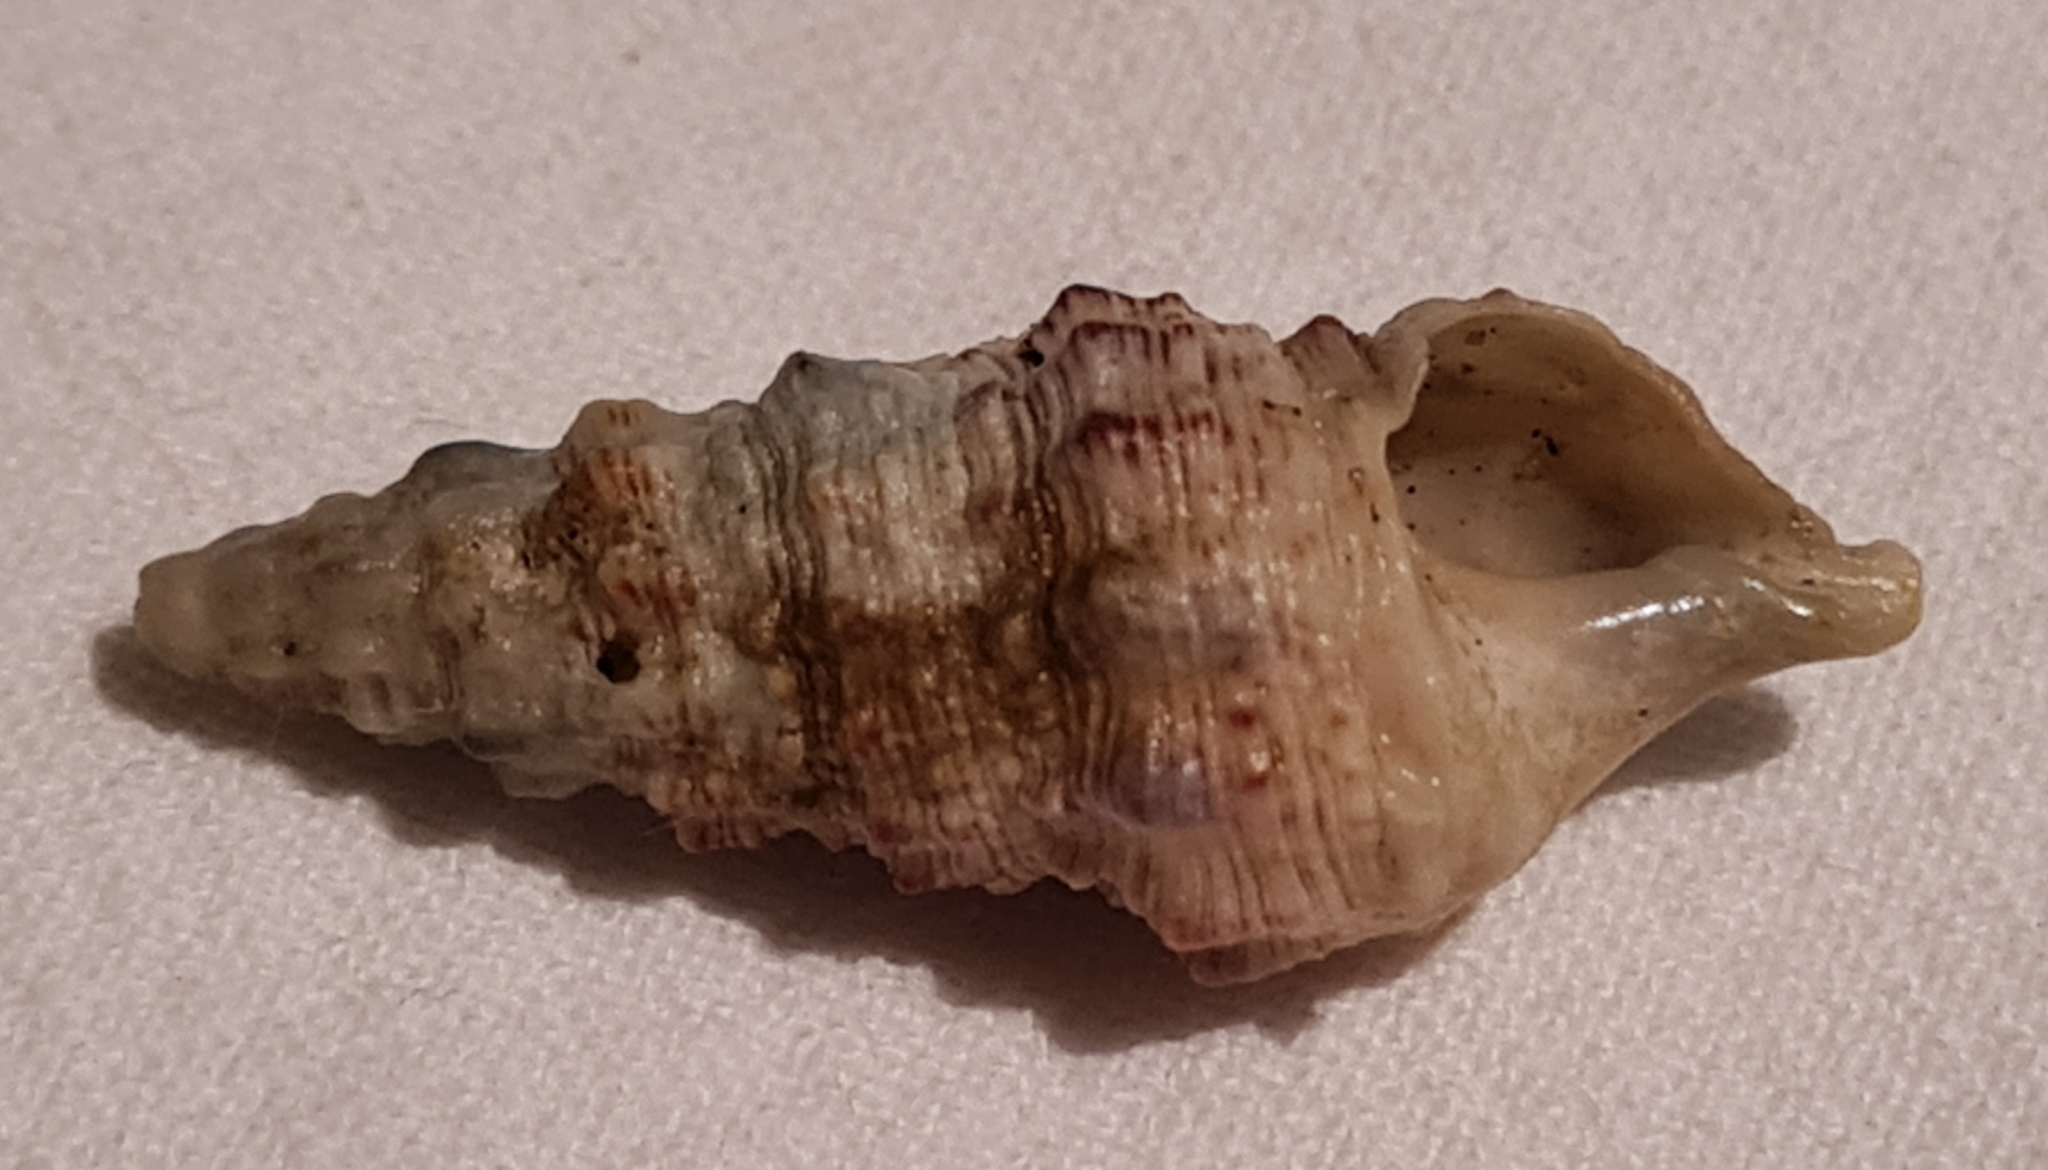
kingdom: Animalia
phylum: Mollusca
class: Gastropoda
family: Cerithiidae
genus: Cerithium
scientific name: Cerithium atratum
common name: Dark cerith
